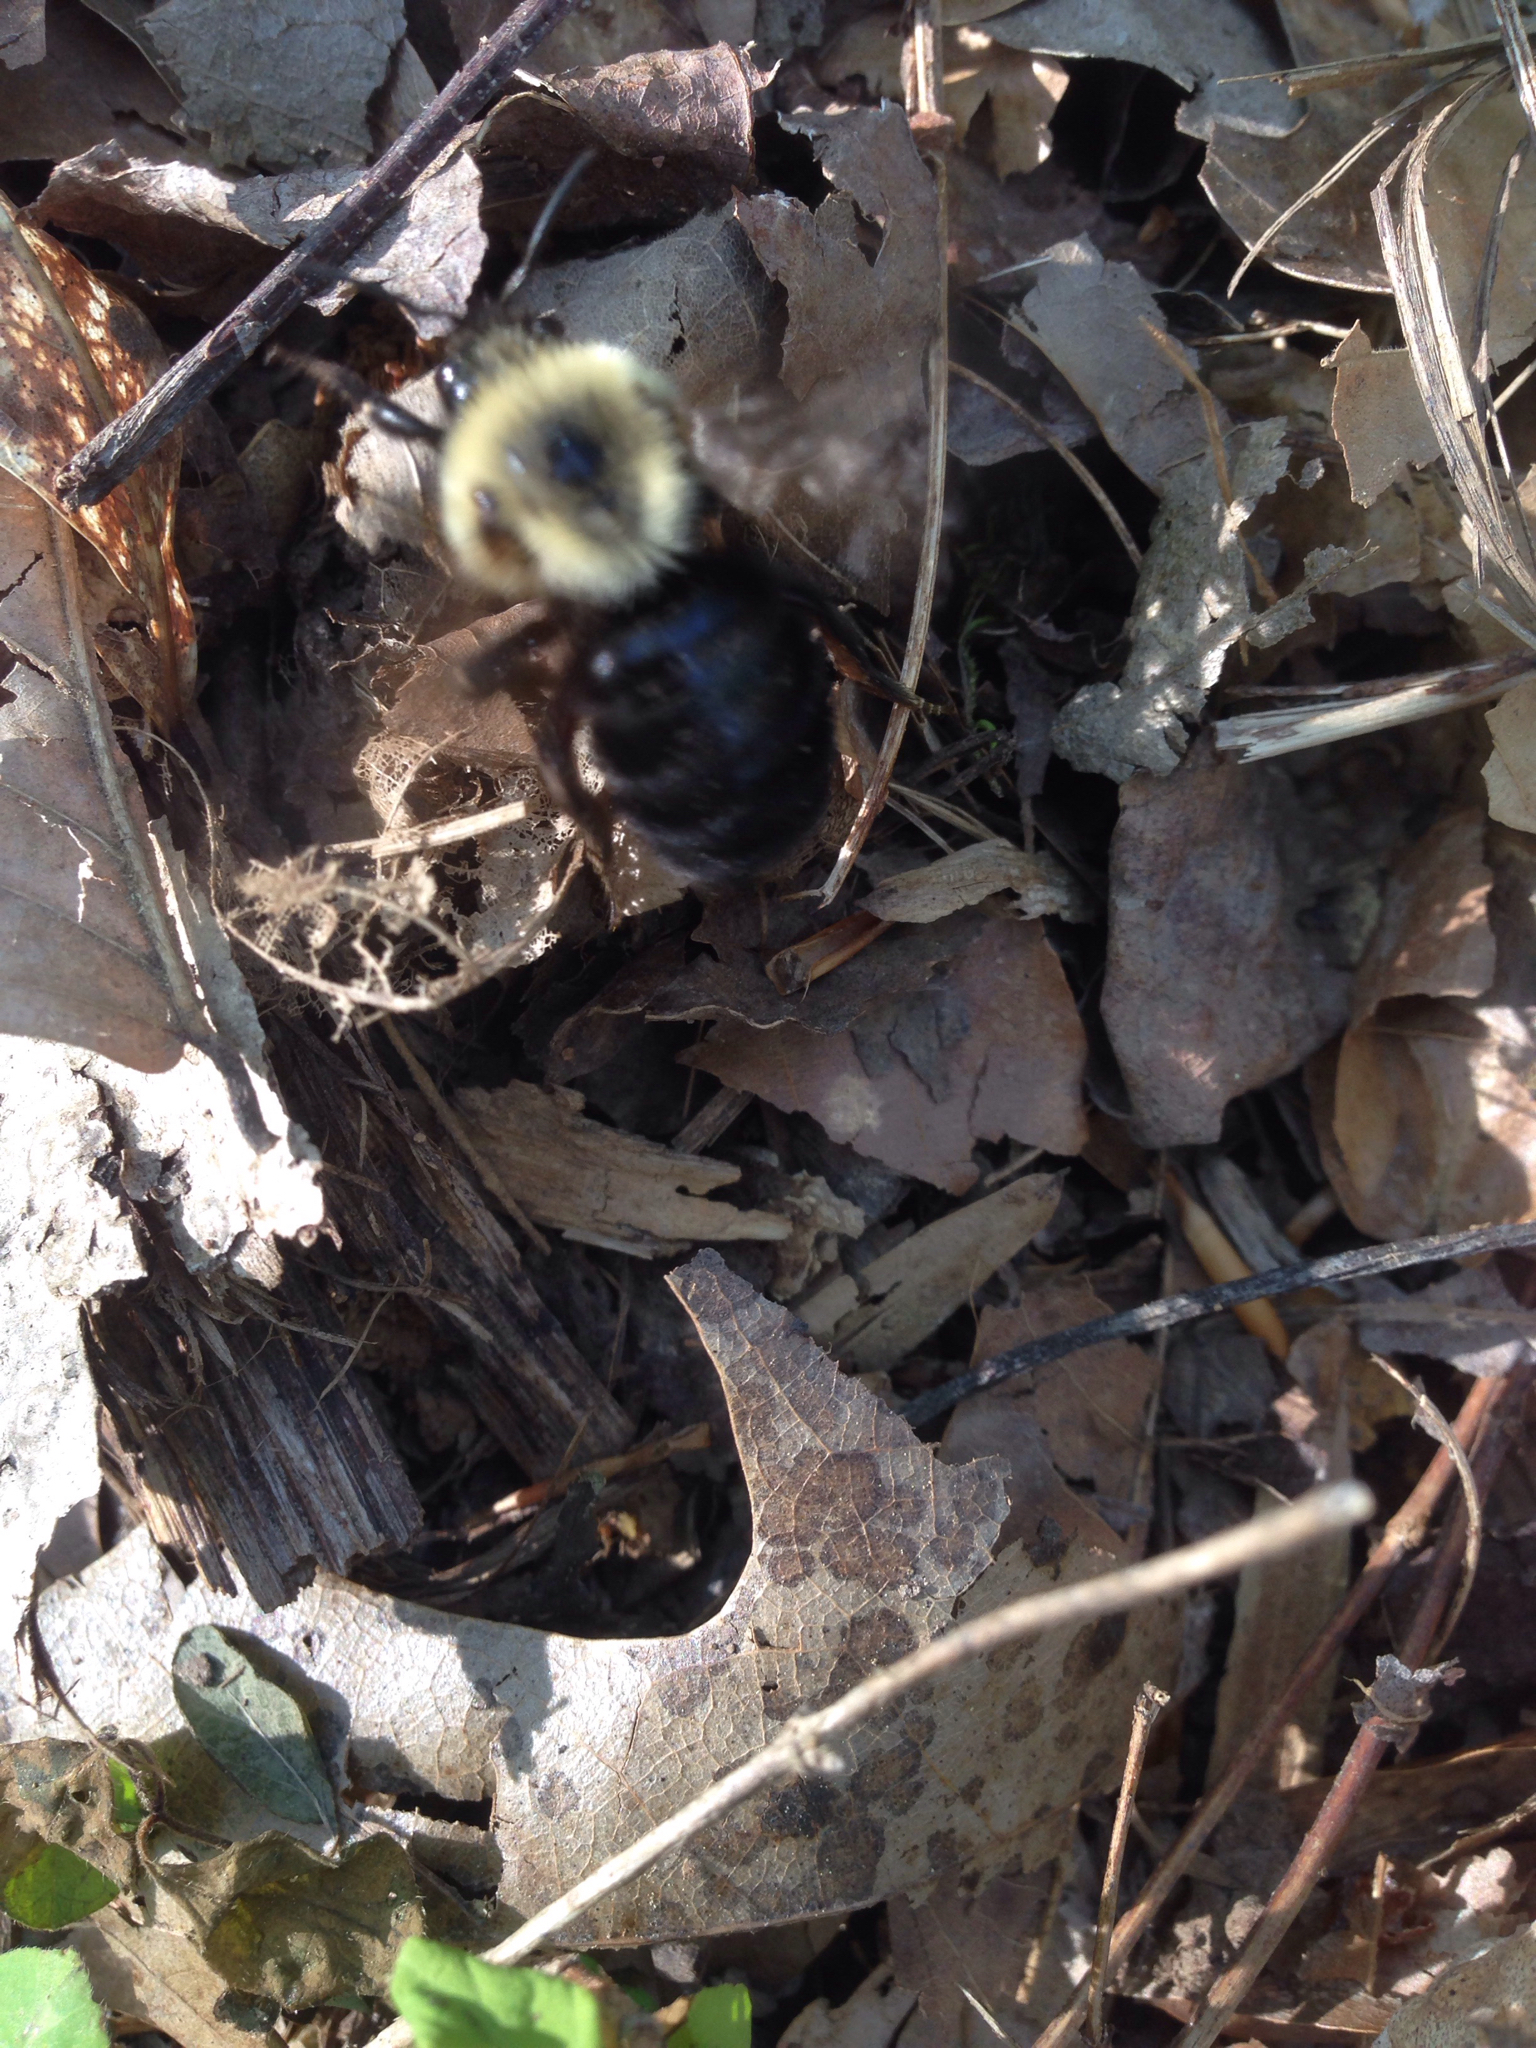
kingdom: Animalia
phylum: Arthropoda
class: Insecta
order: Hymenoptera
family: Apidae
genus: Bombus
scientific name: Bombus citrinus
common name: Lemon cuckoo bumble bee
